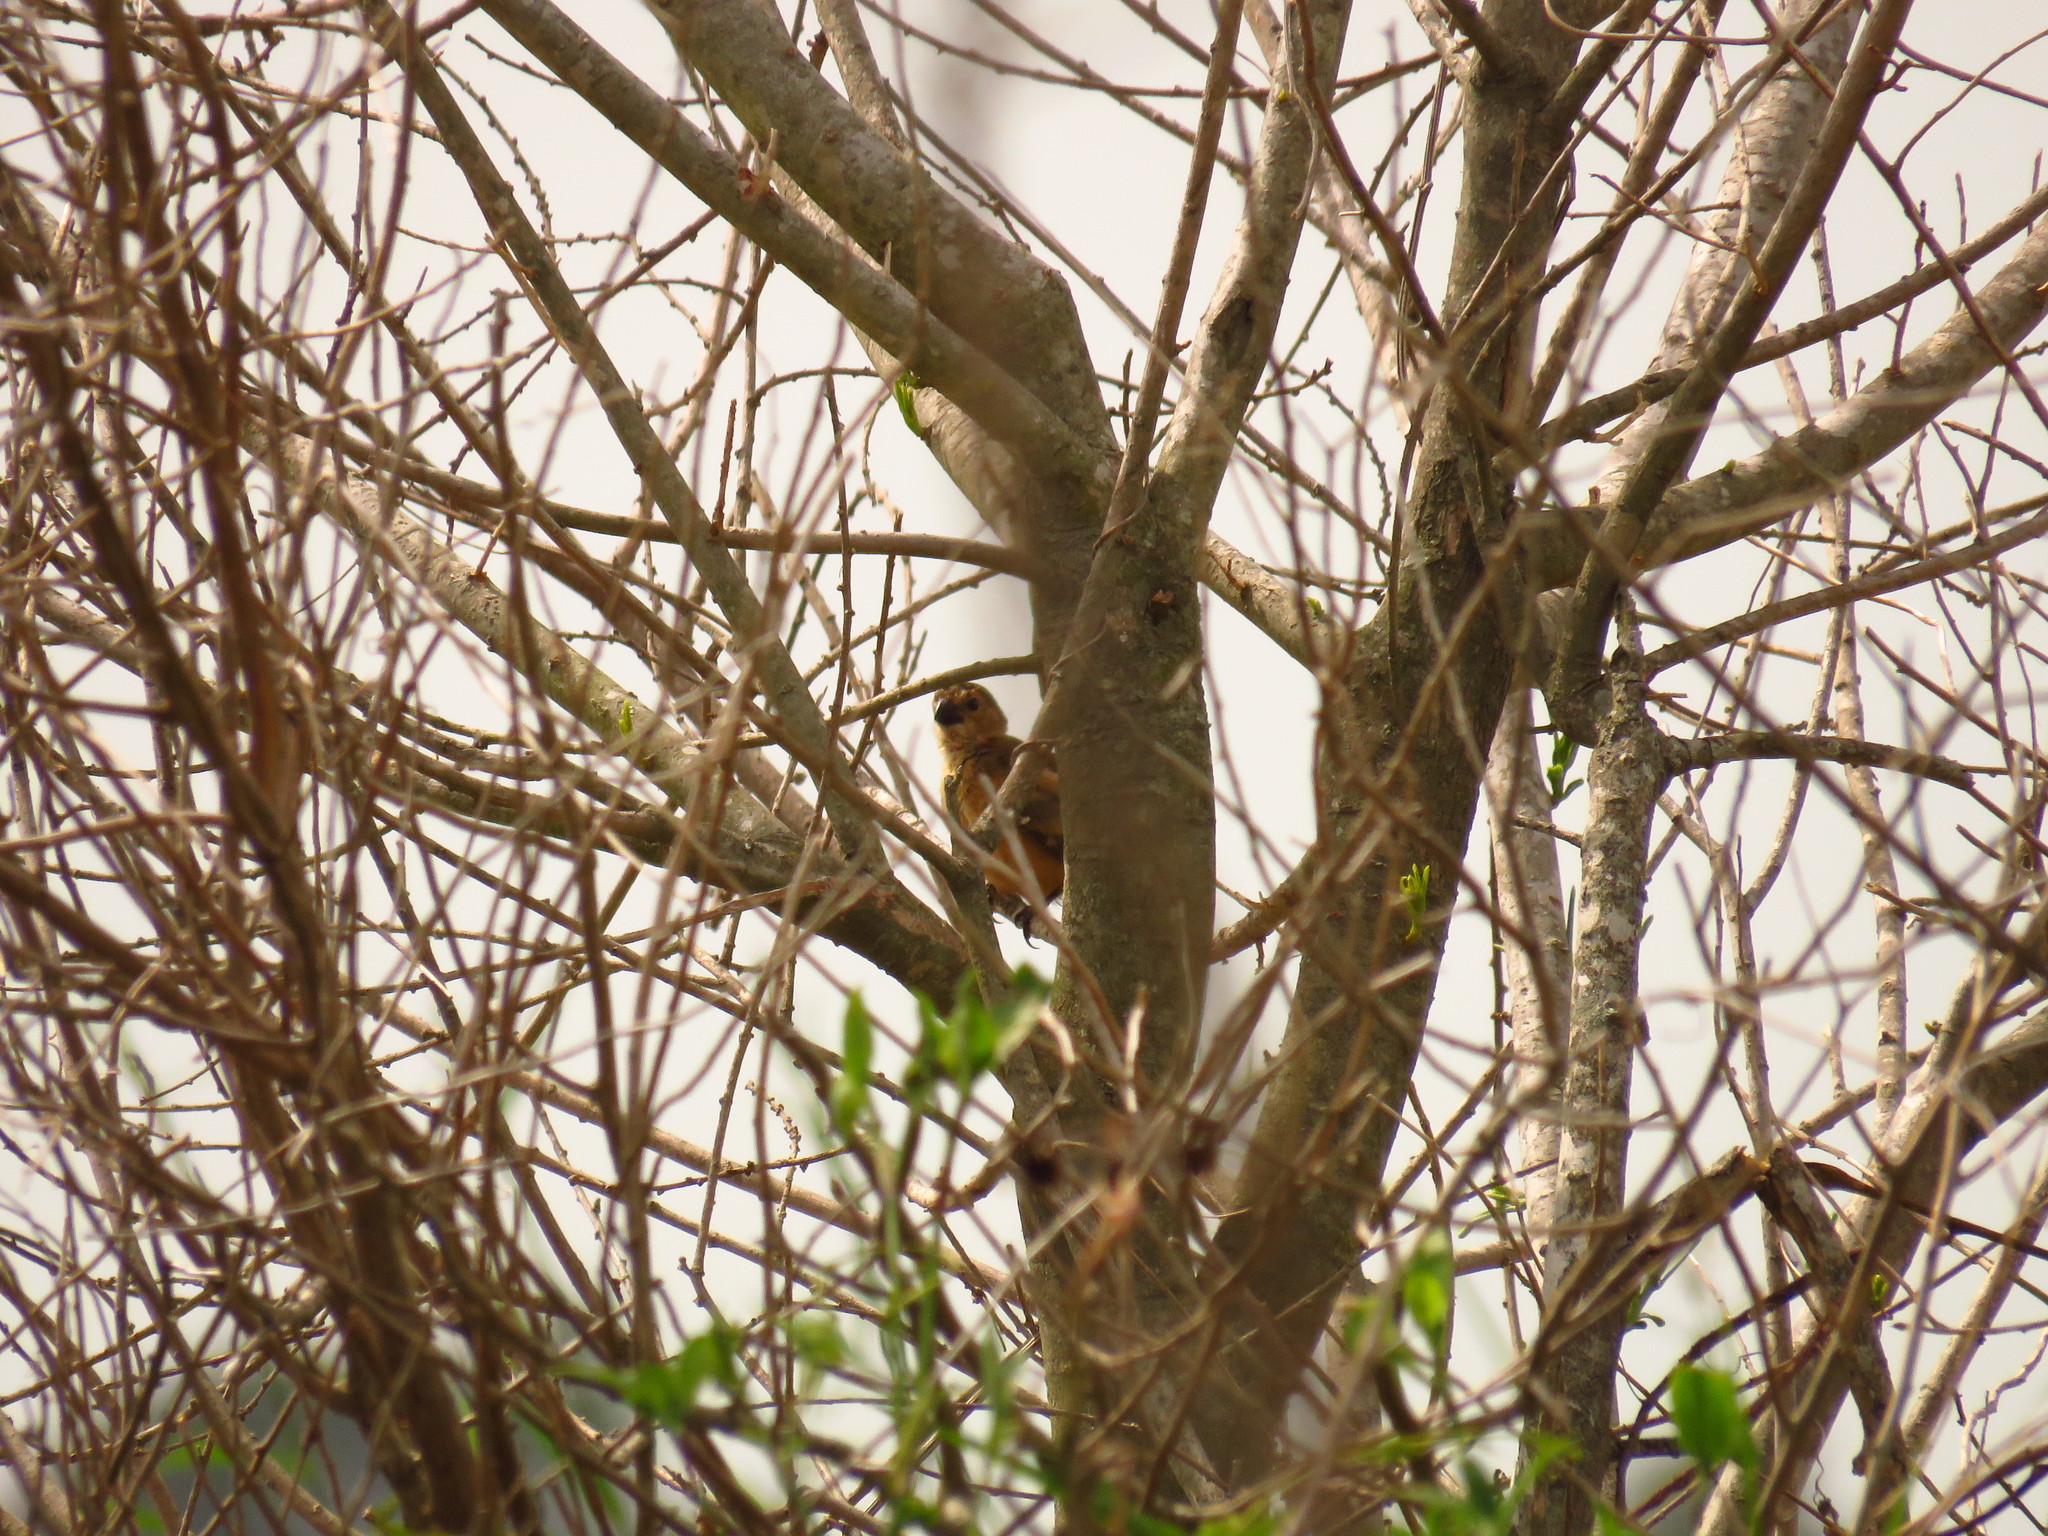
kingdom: Animalia
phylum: Chordata
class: Aves
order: Passeriformes
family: Cardinalidae
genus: Cyanoloxia
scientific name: Cyanoloxia brissonii
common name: Ultramarine grosbeak
